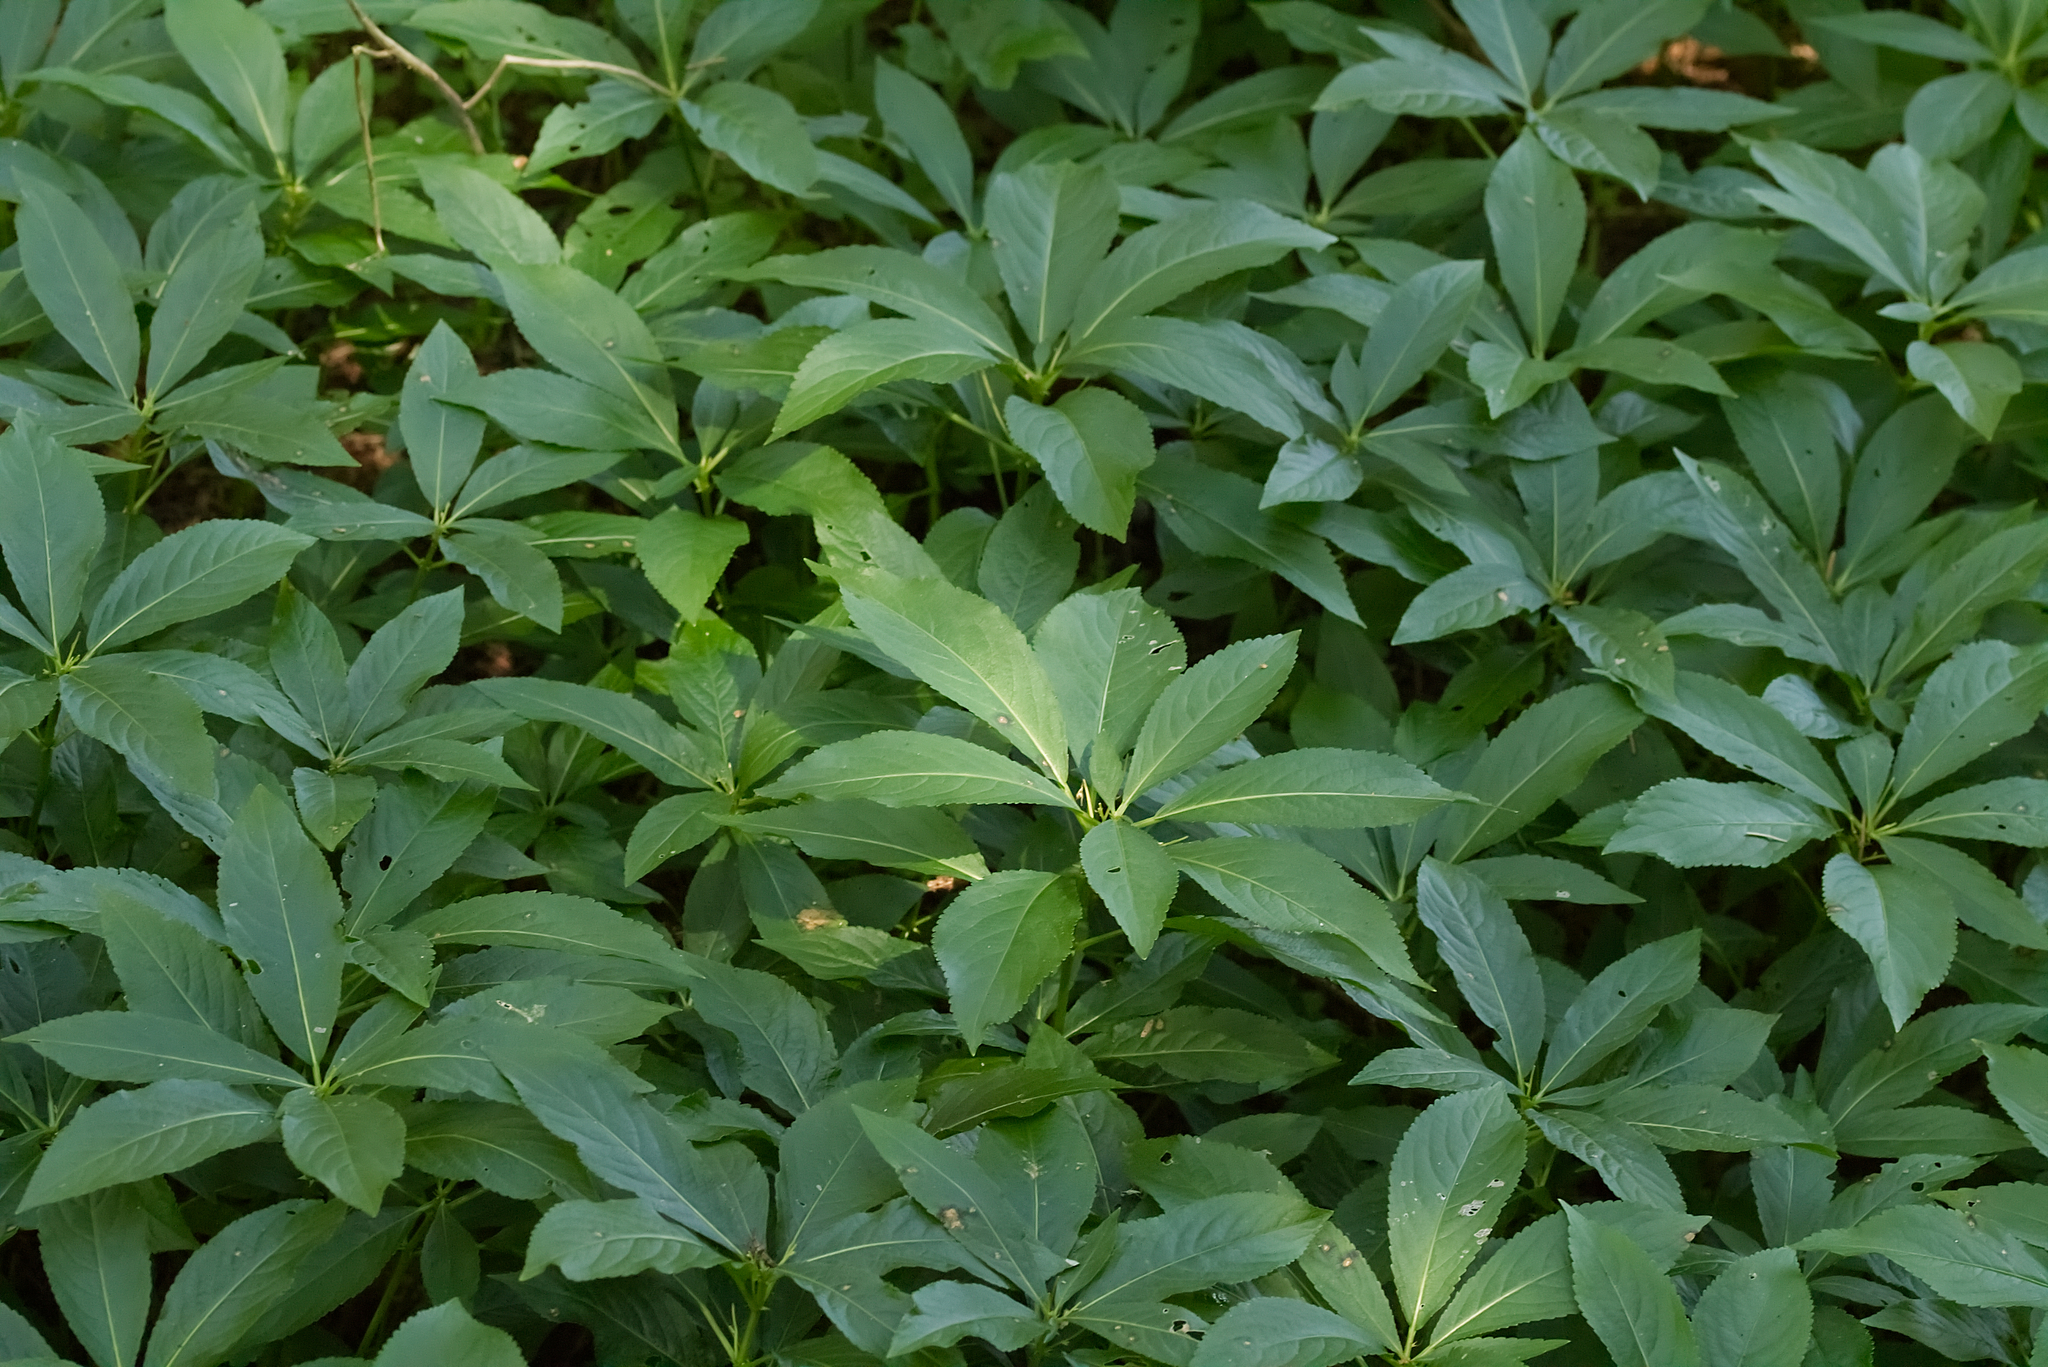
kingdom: Plantae
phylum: Tracheophyta
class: Magnoliopsida
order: Malpighiales
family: Euphorbiaceae
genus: Mercurialis
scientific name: Mercurialis perennis
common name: Dog mercury
